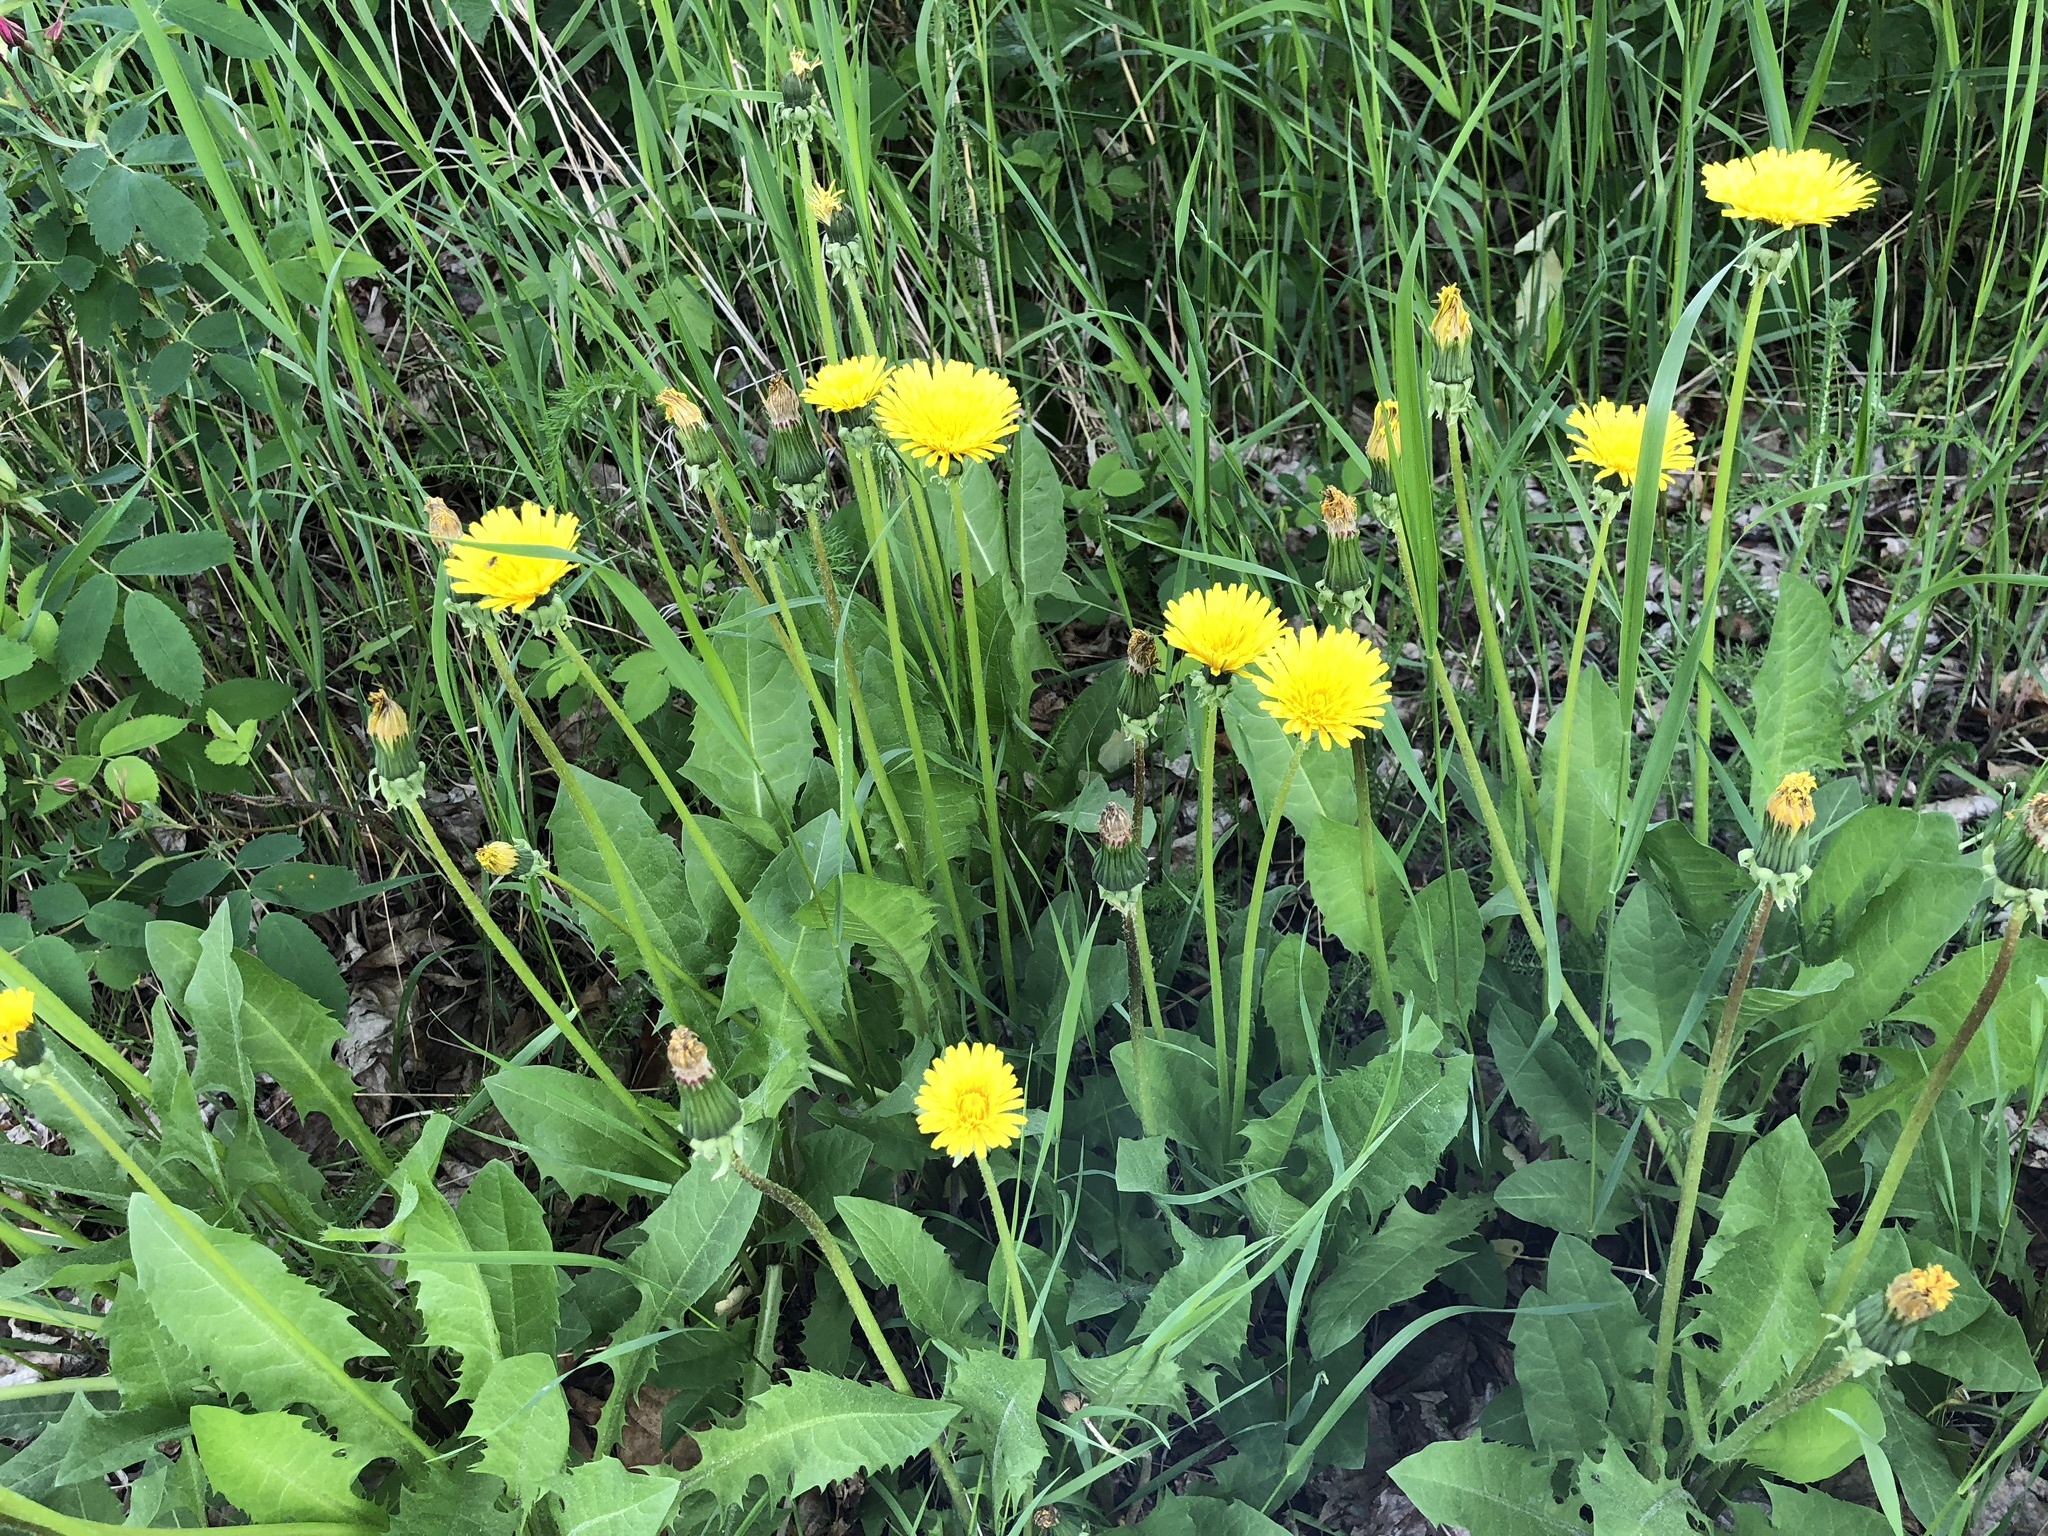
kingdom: Plantae
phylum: Tracheophyta
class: Magnoliopsida
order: Asterales
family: Asteraceae
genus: Taraxacum
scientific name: Taraxacum officinale
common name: Common dandelion
